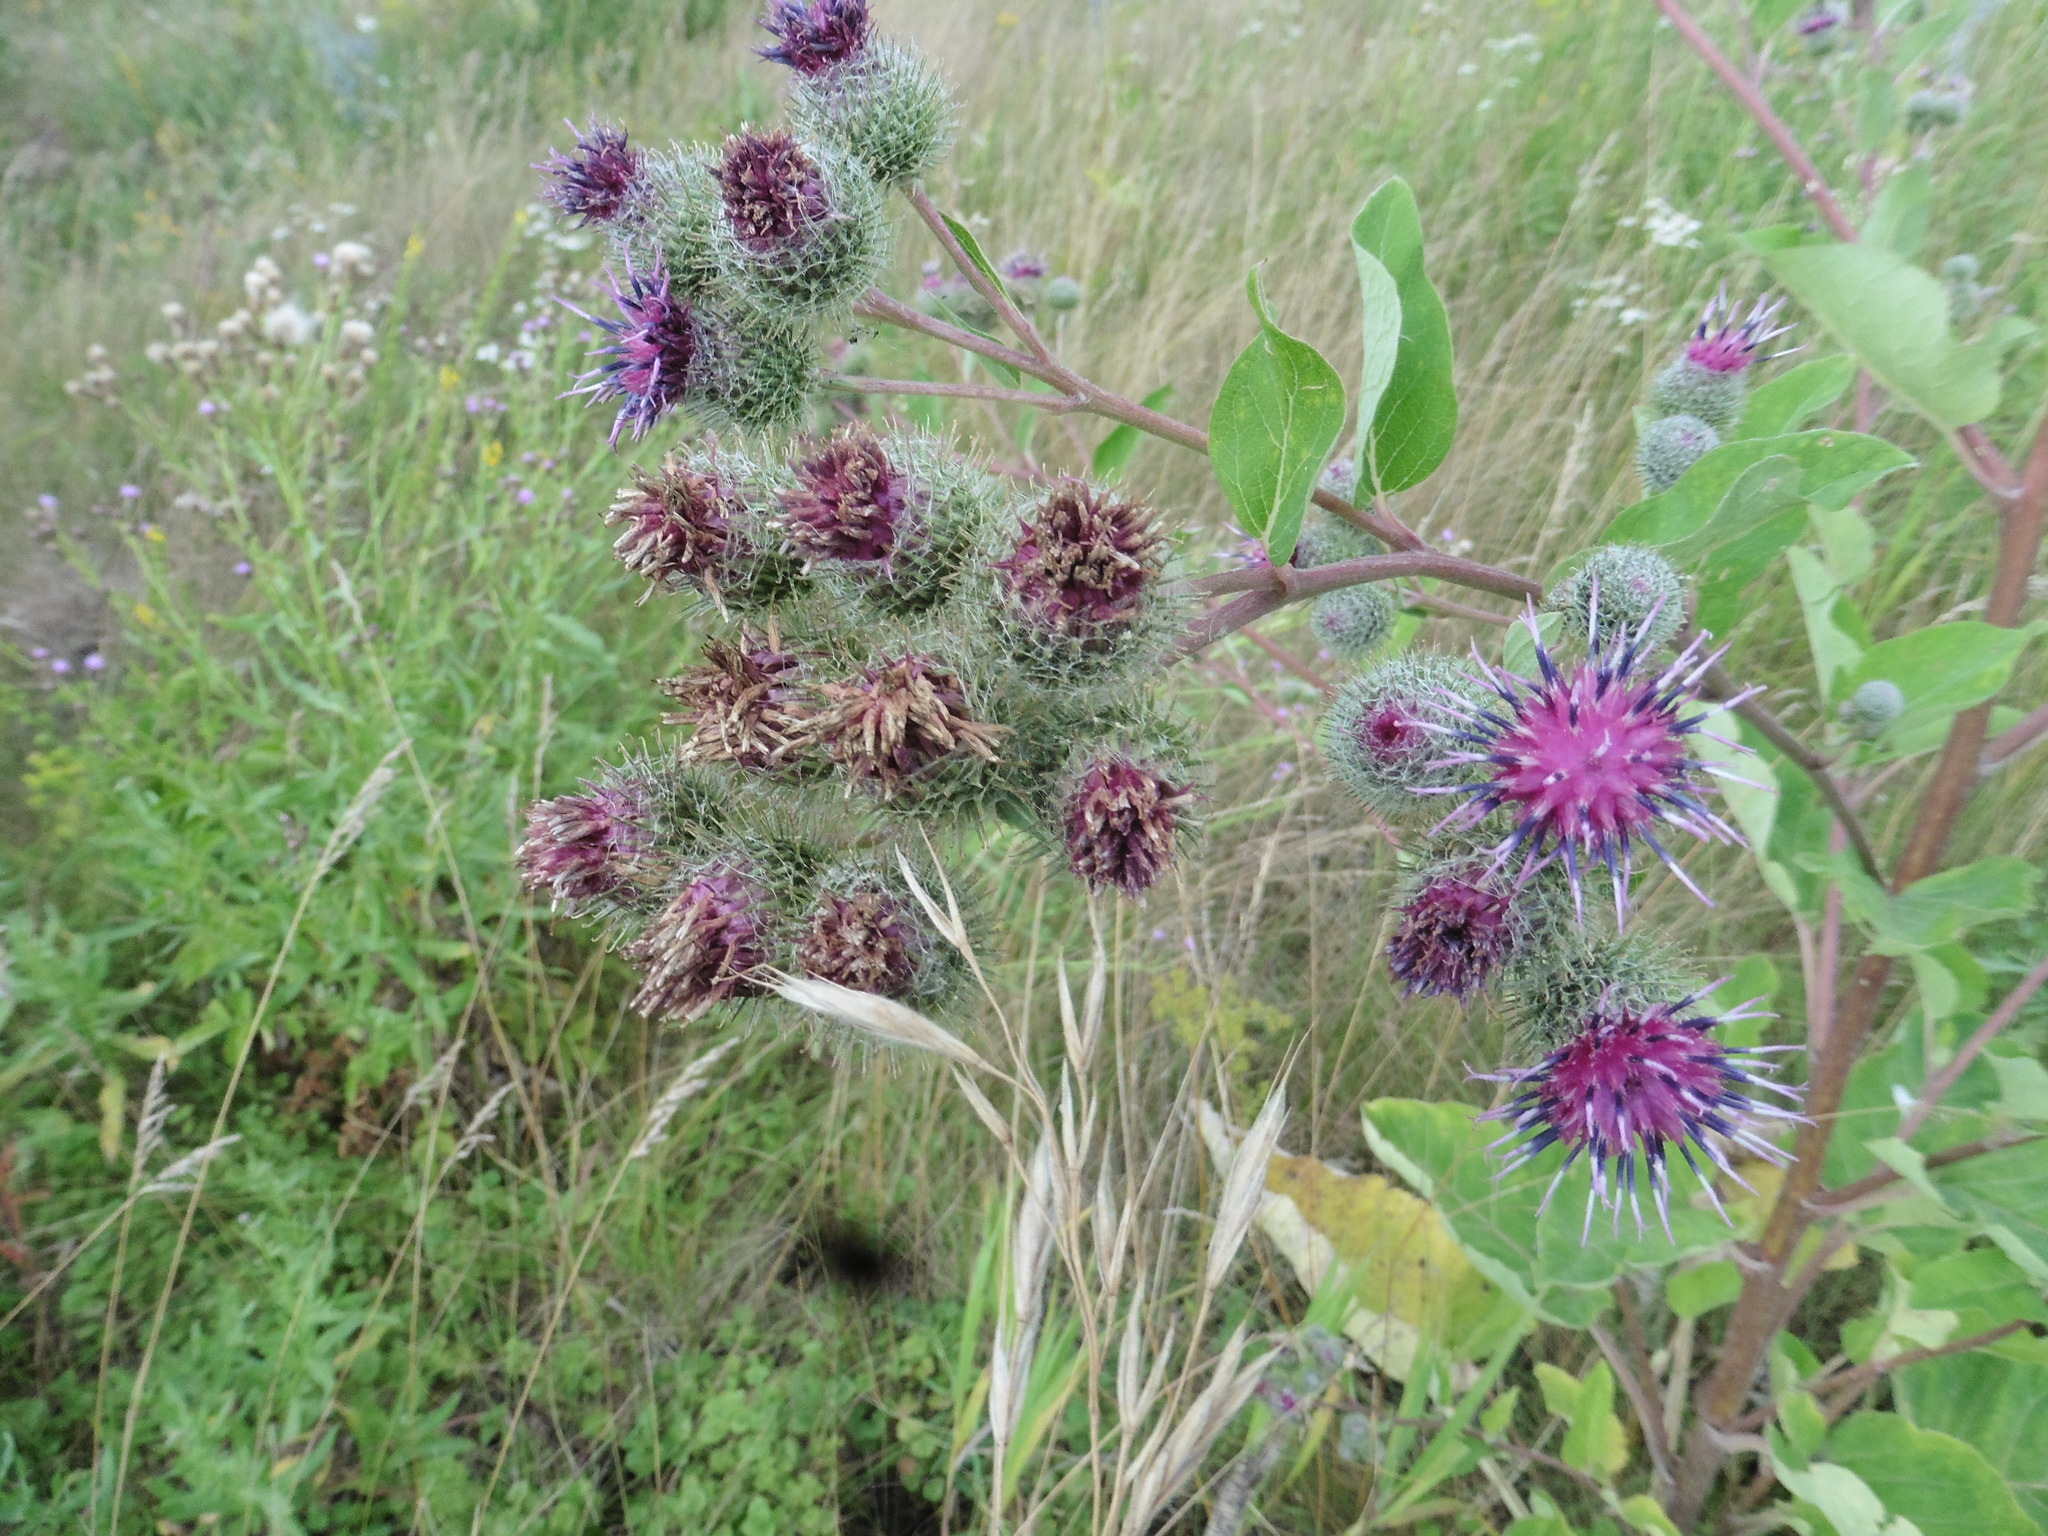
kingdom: Plantae
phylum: Tracheophyta
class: Magnoliopsida
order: Asterales
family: Asteraceae
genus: Arctium
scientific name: Arctium tomentosum
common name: Woolly burdock
